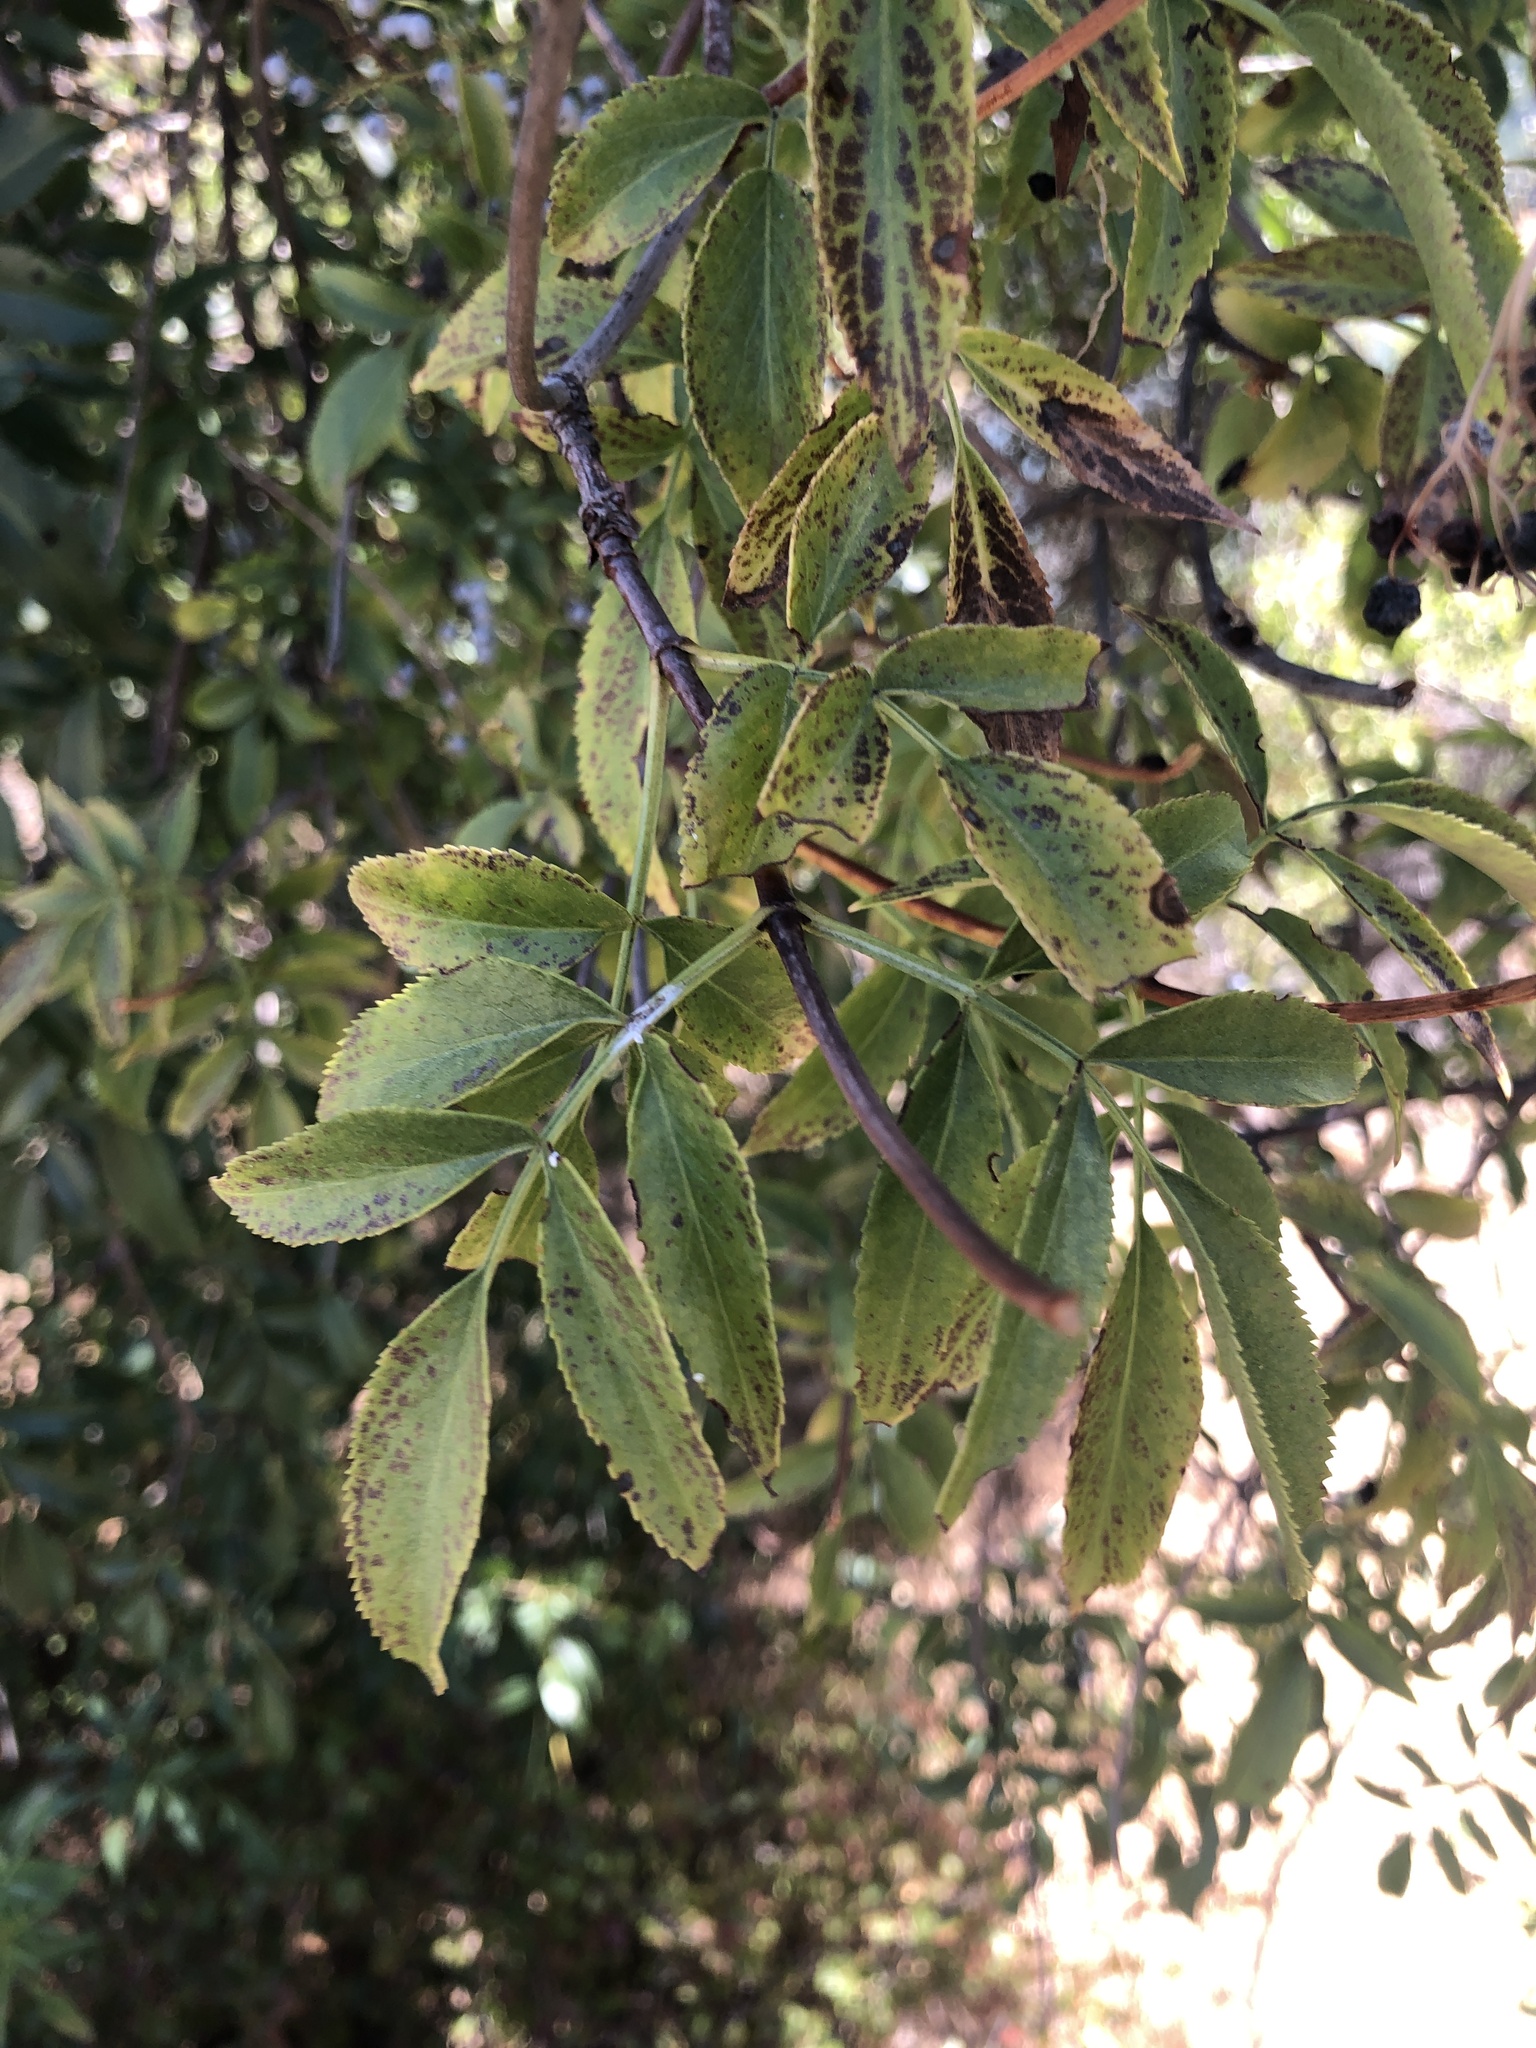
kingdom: Plantae
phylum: Tracheophyta
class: Magnoliopsida
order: Dipsacales
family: Viburnaceae
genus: Sambucus
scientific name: Sambucus cerulea
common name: Blue elder
